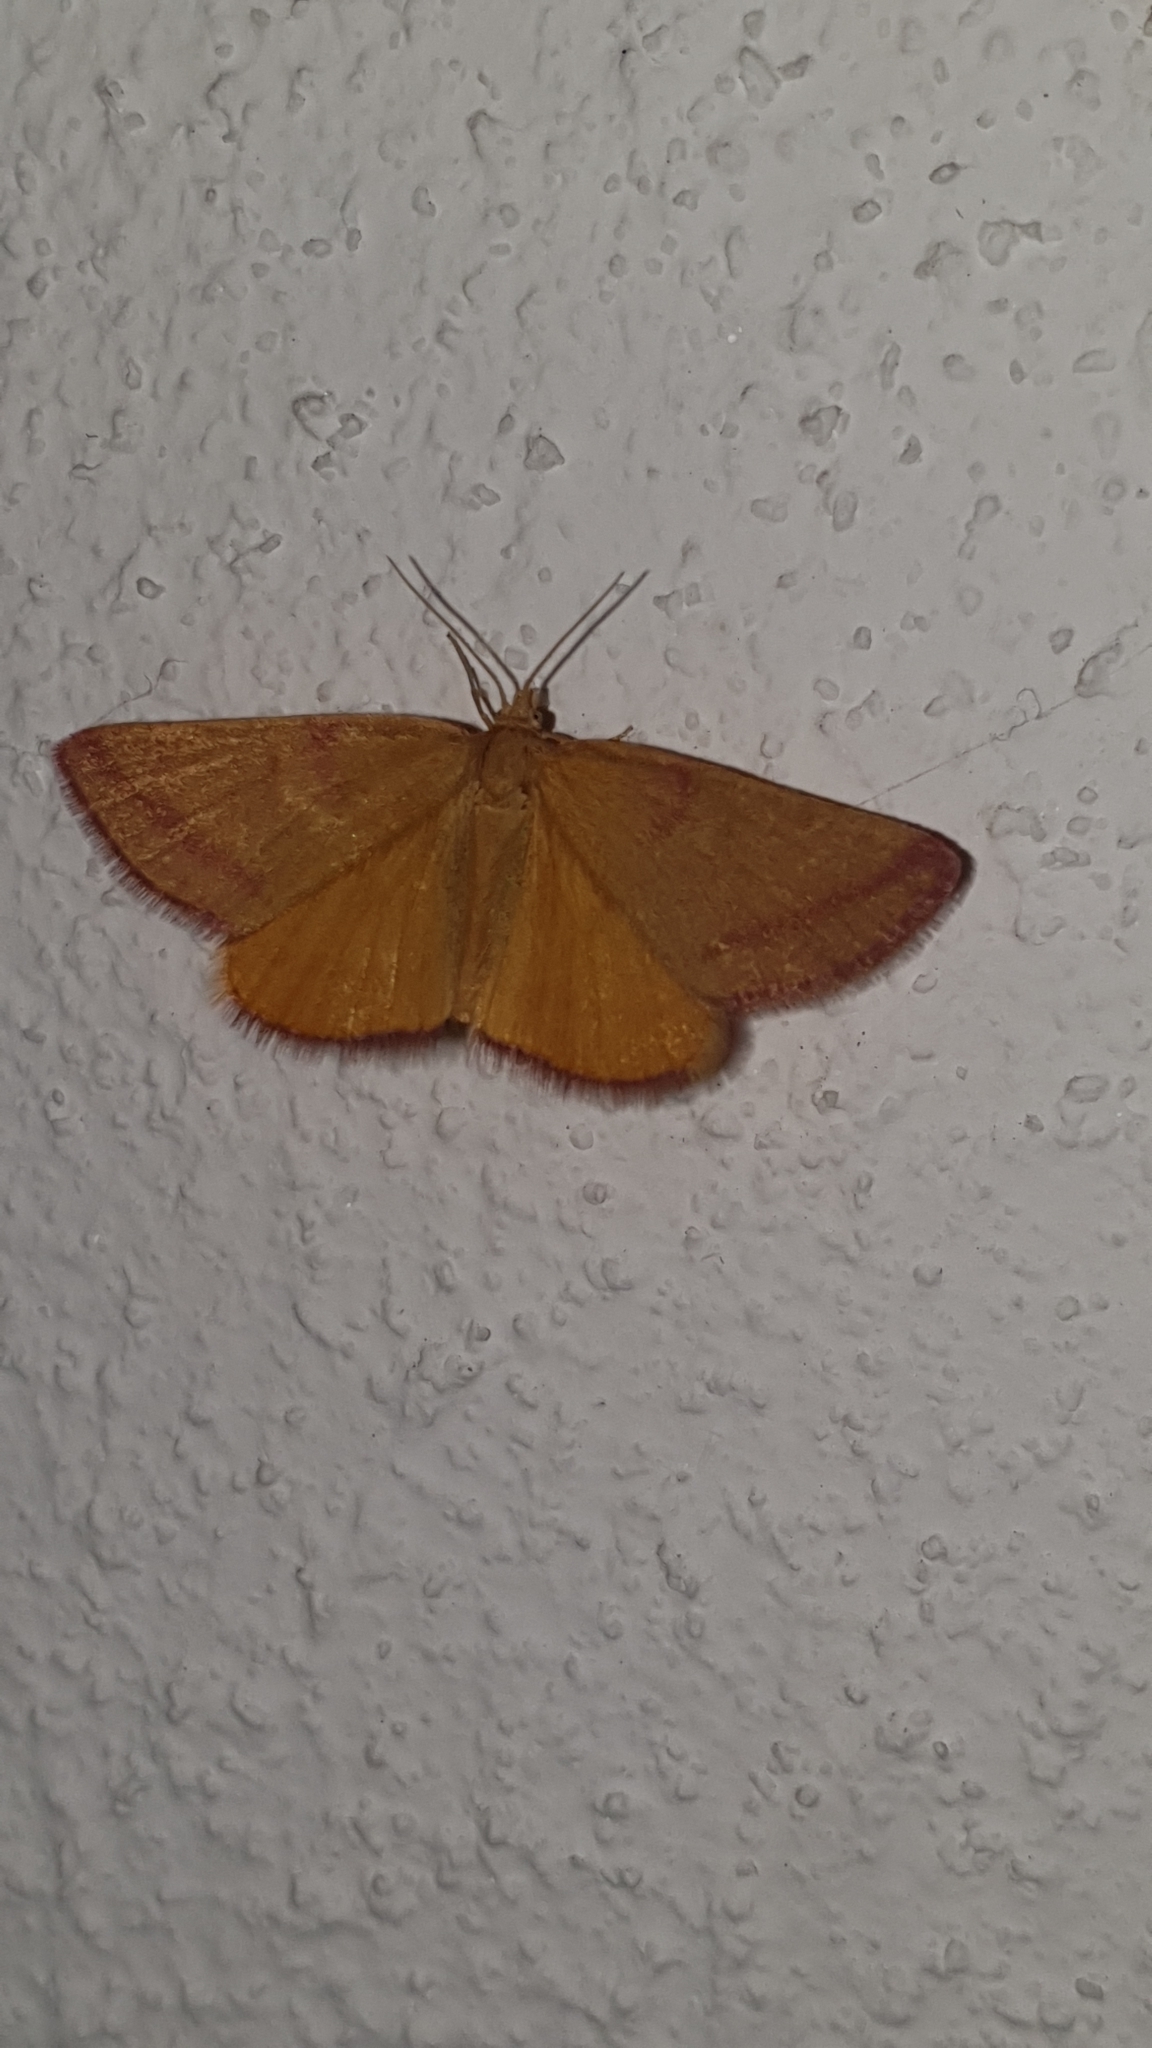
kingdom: Animalia
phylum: Arthropoda
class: Insecta
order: Lepidoptera
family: Geometridae
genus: Lythria
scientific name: Lythria purpuraria
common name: Purple-barred yellow
